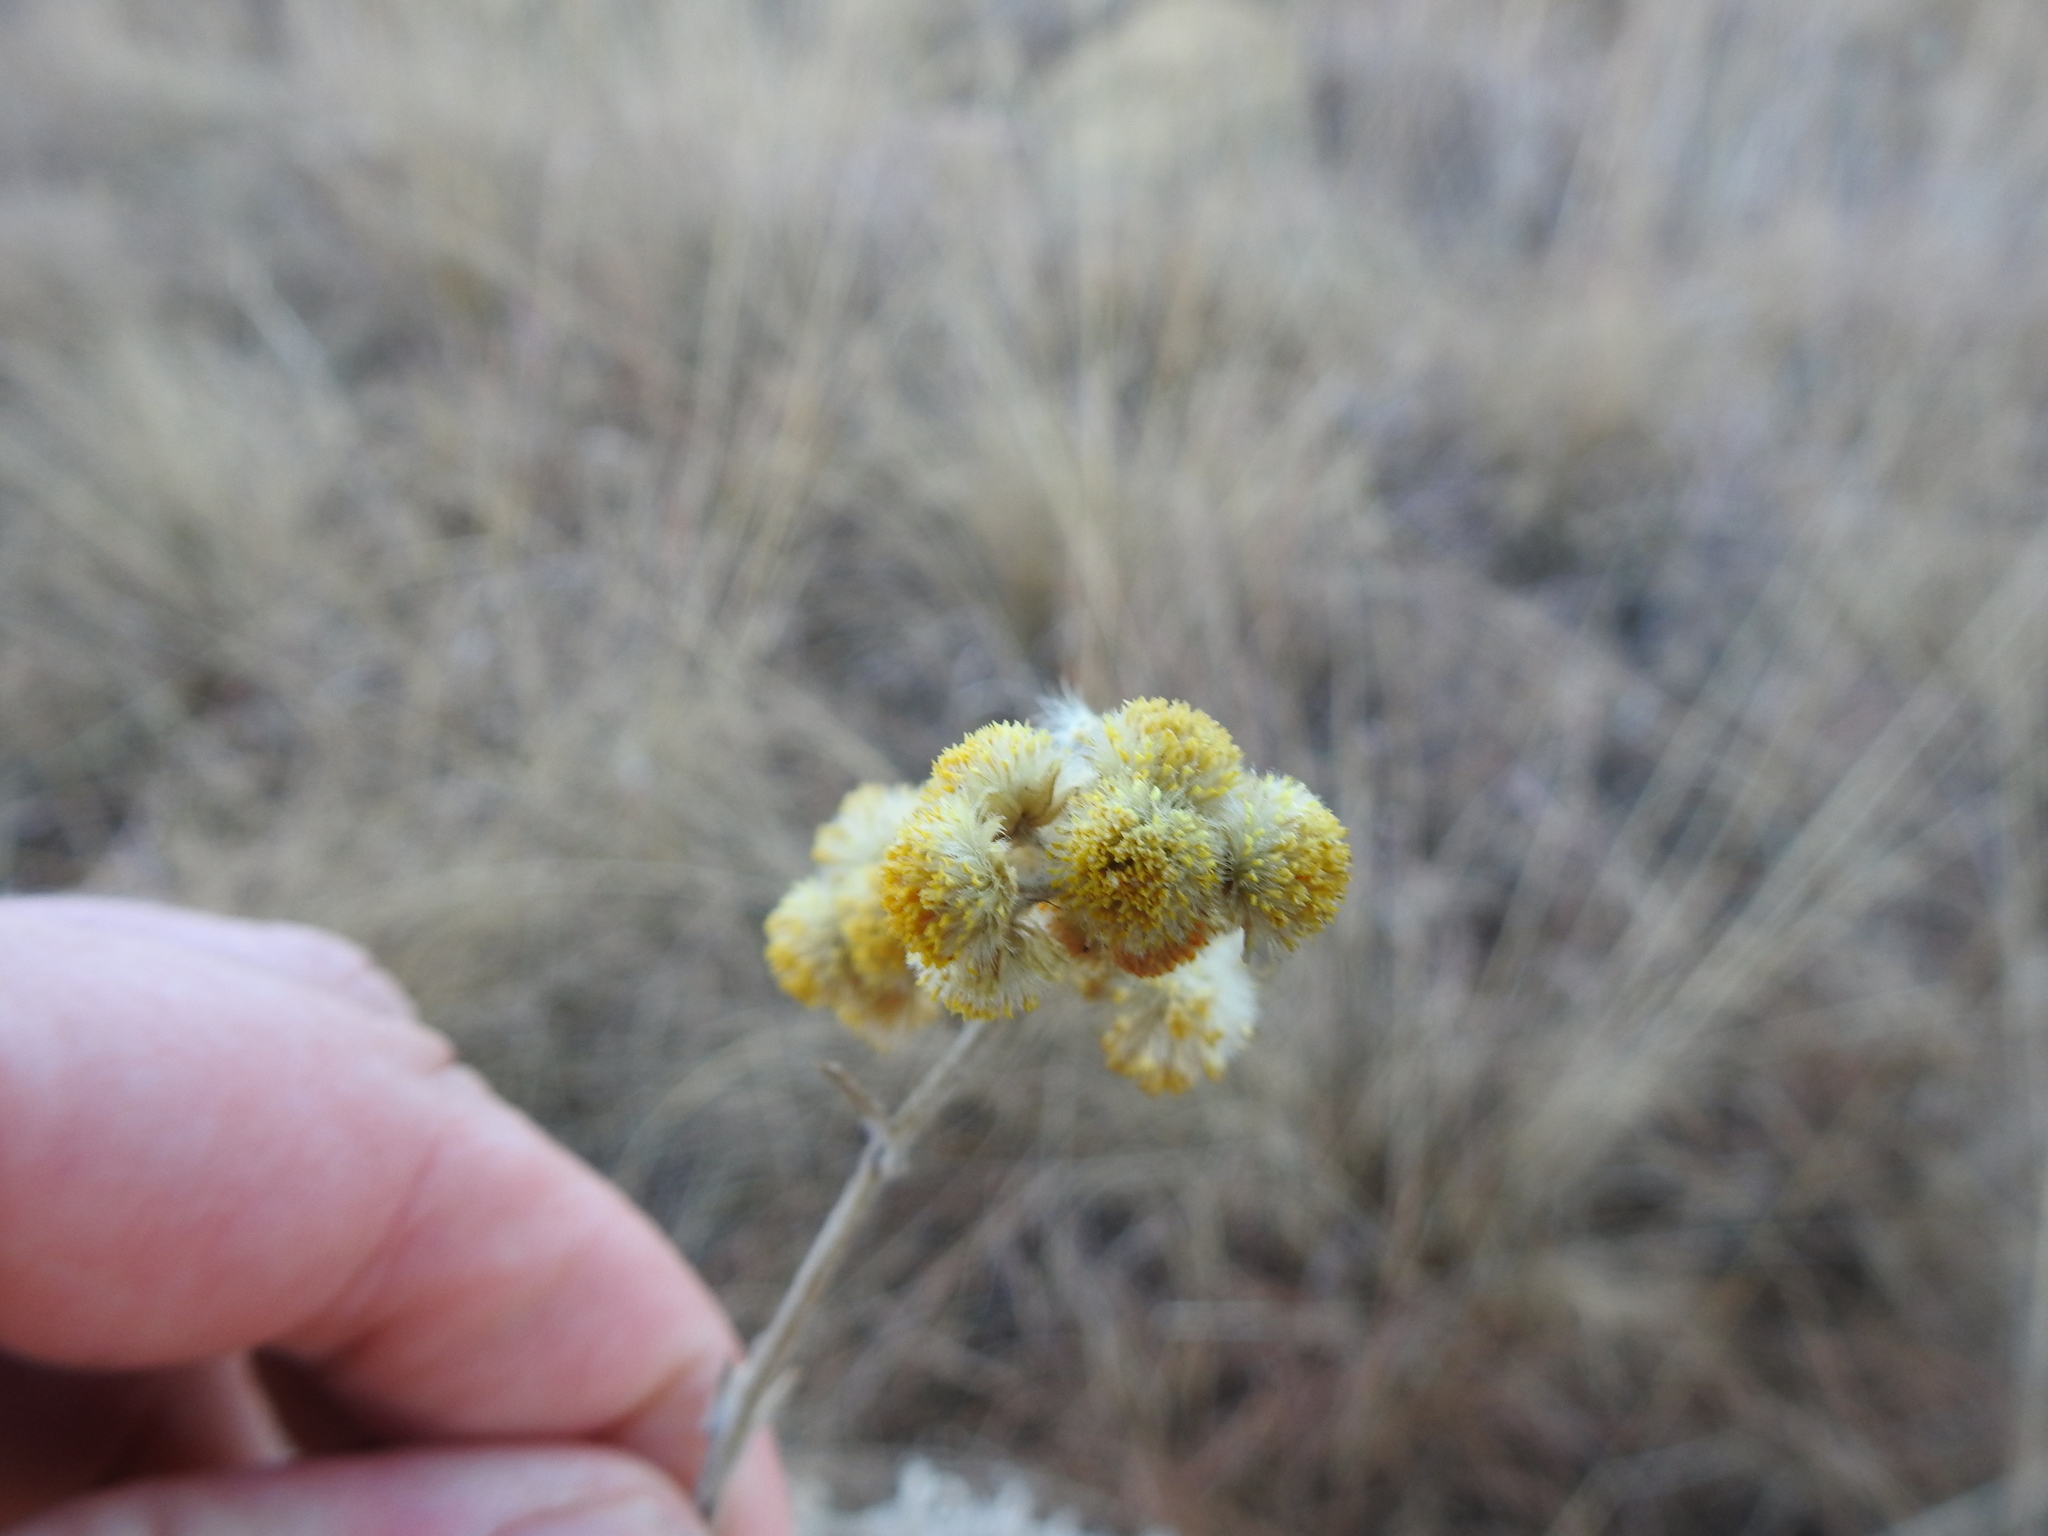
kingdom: Plantae
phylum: Tracheophyta
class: Magnoliopsida
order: Asterales
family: Asteraceae
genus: Nidorella
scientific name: Nidorella hottentotica
